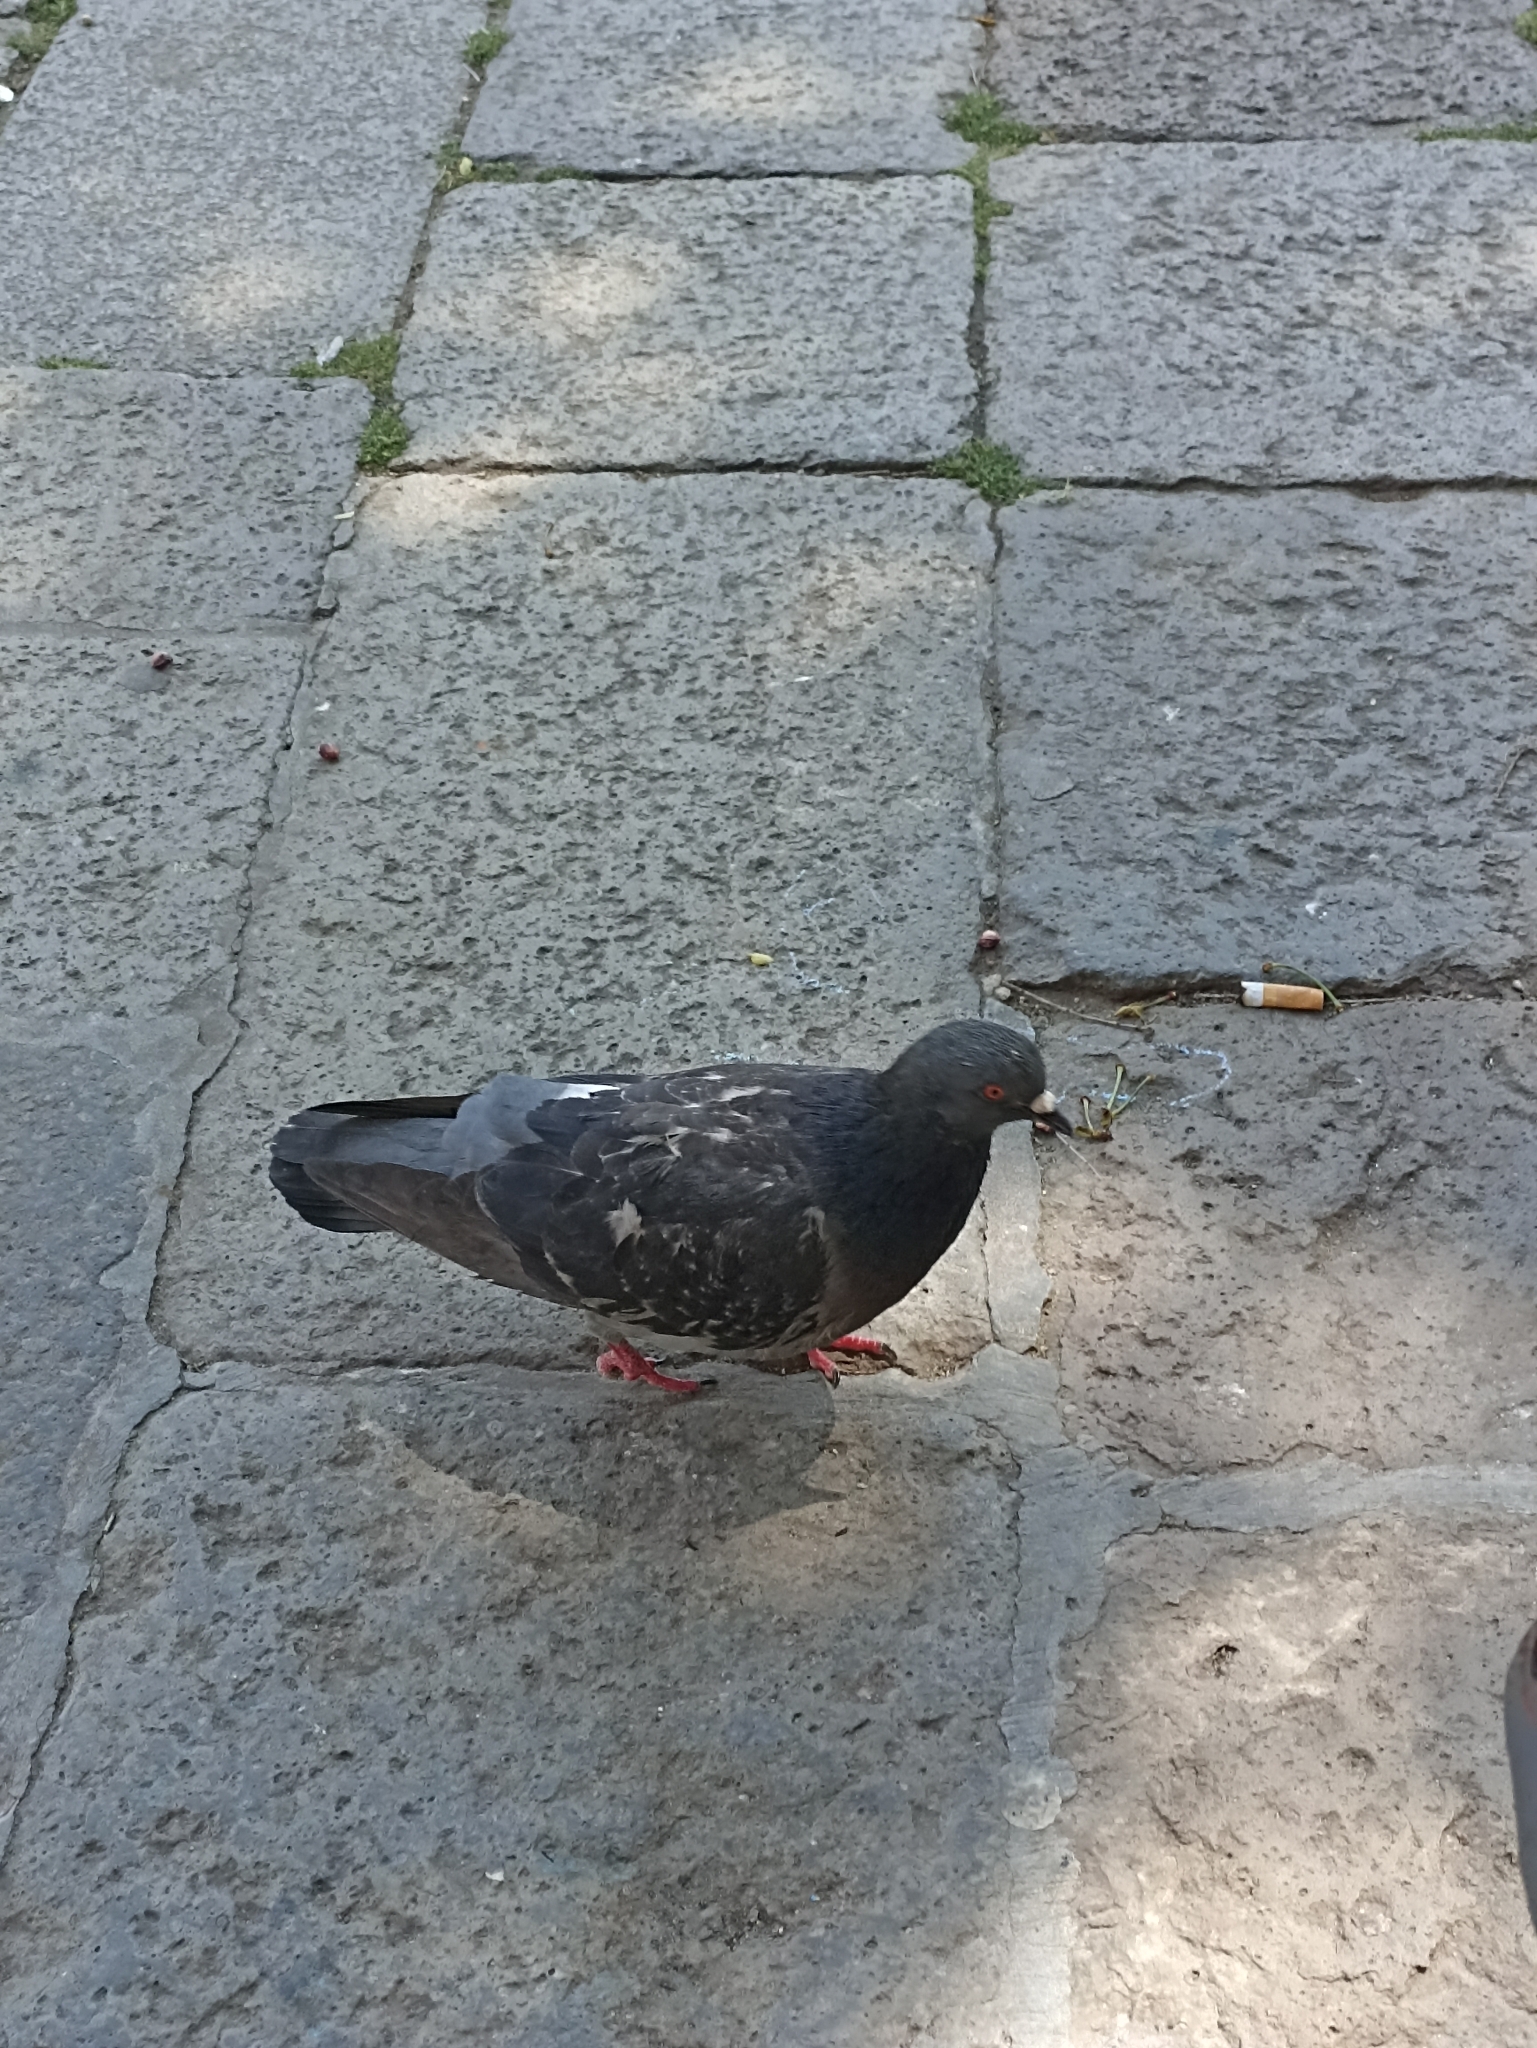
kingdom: Animalia
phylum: Chordata
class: Aves
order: Columbiformes
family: Columbidae
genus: Columba
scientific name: Columba livia
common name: Rock pigeon
